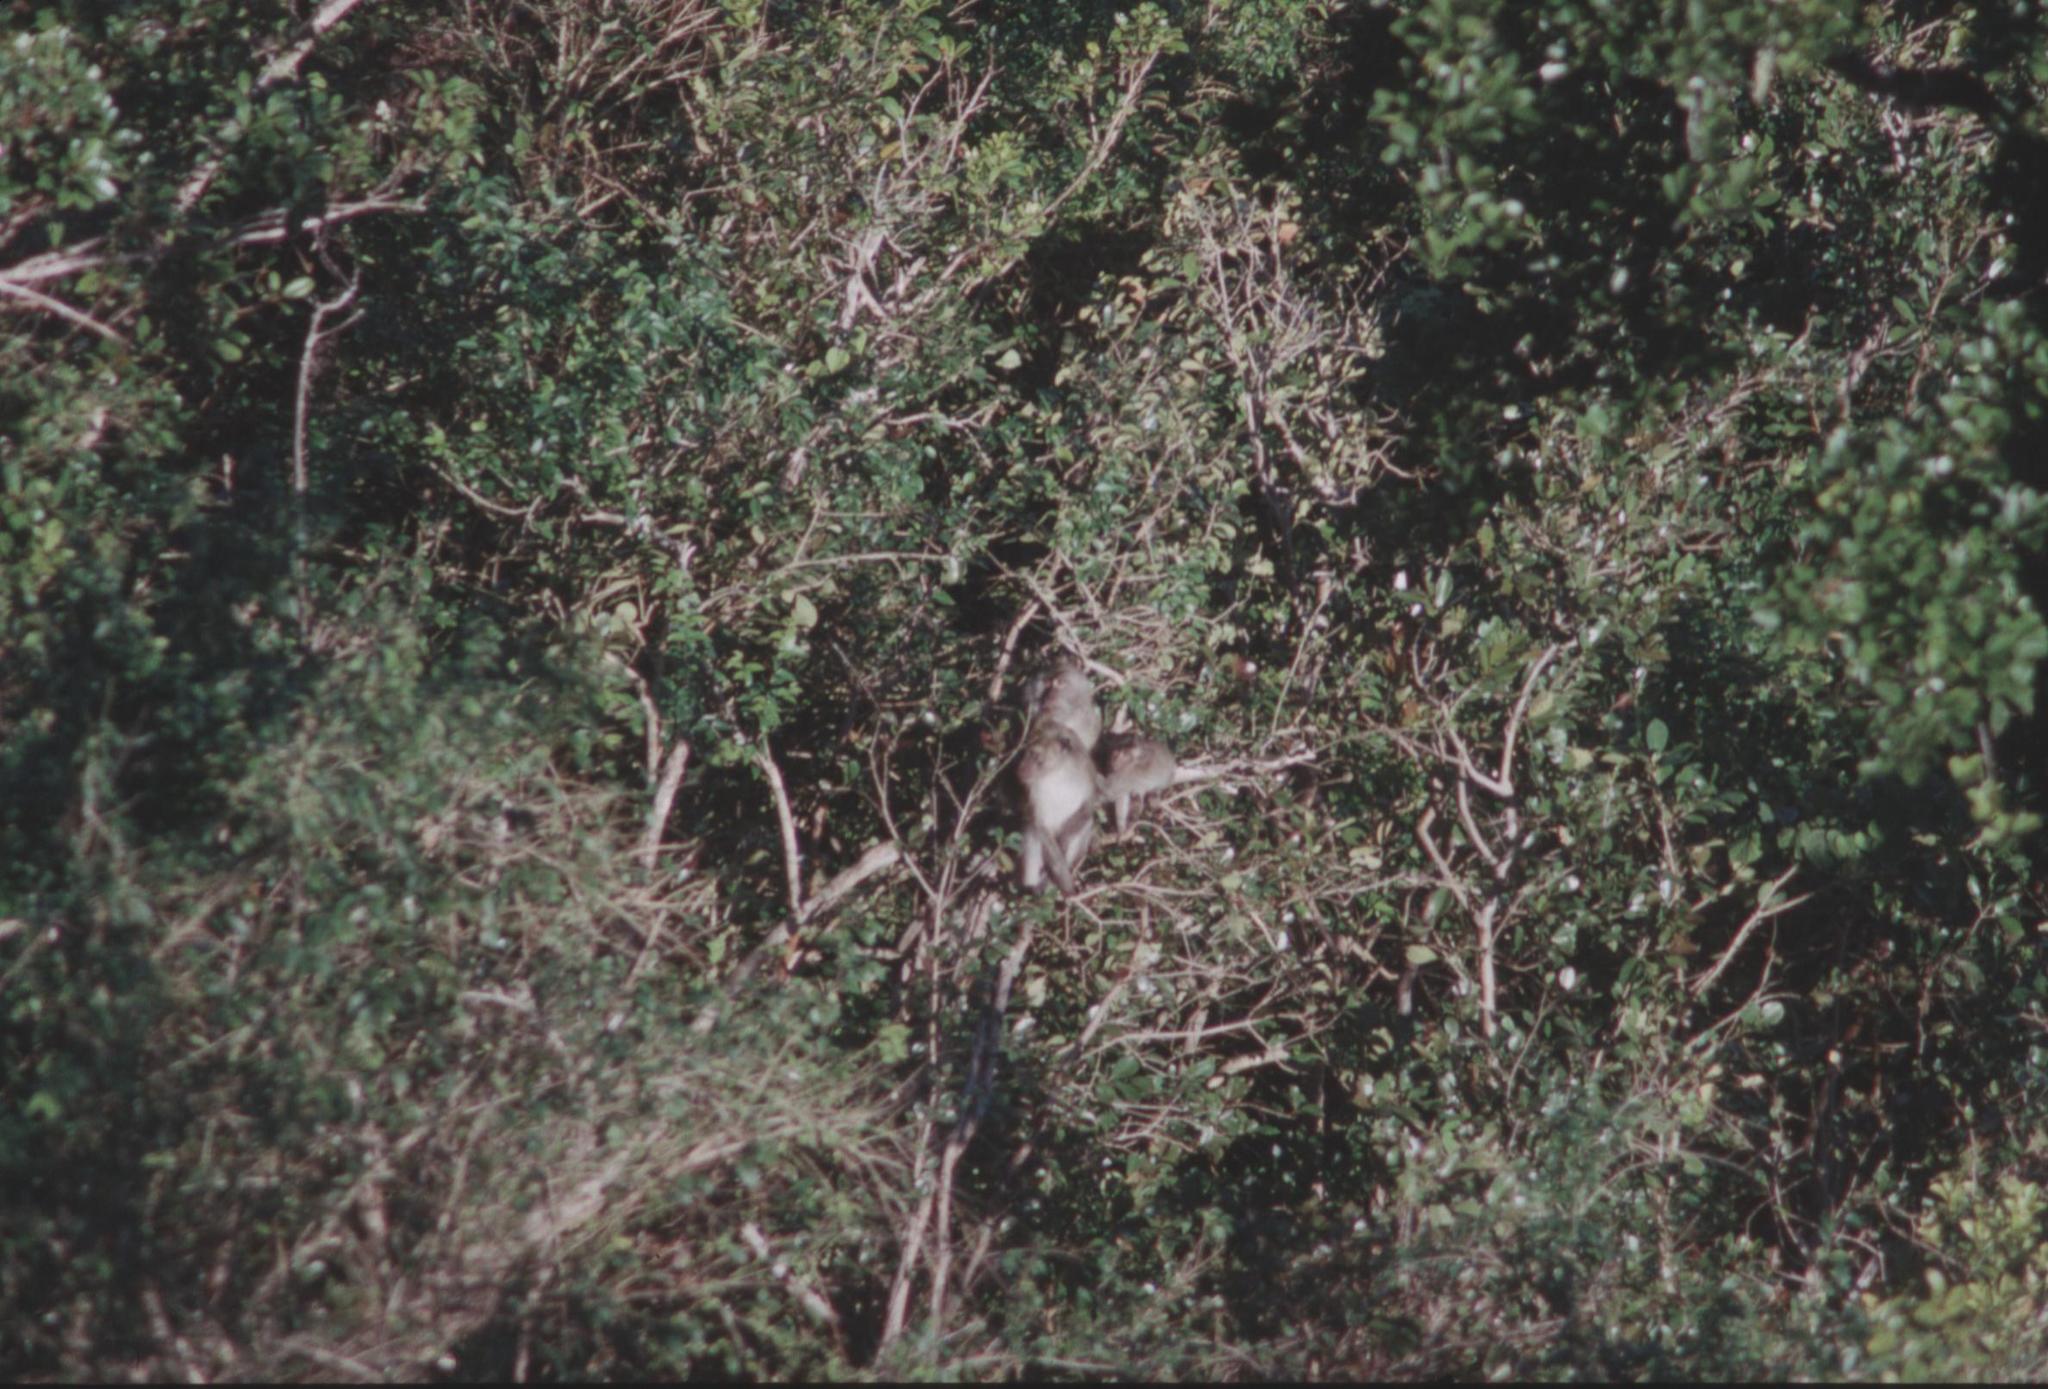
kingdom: Animalia
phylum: Chordata
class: Mammalia
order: Primates
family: Cercopithecidae
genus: Macaca
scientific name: Macaca fascicularis
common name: Crab-eating macaque
